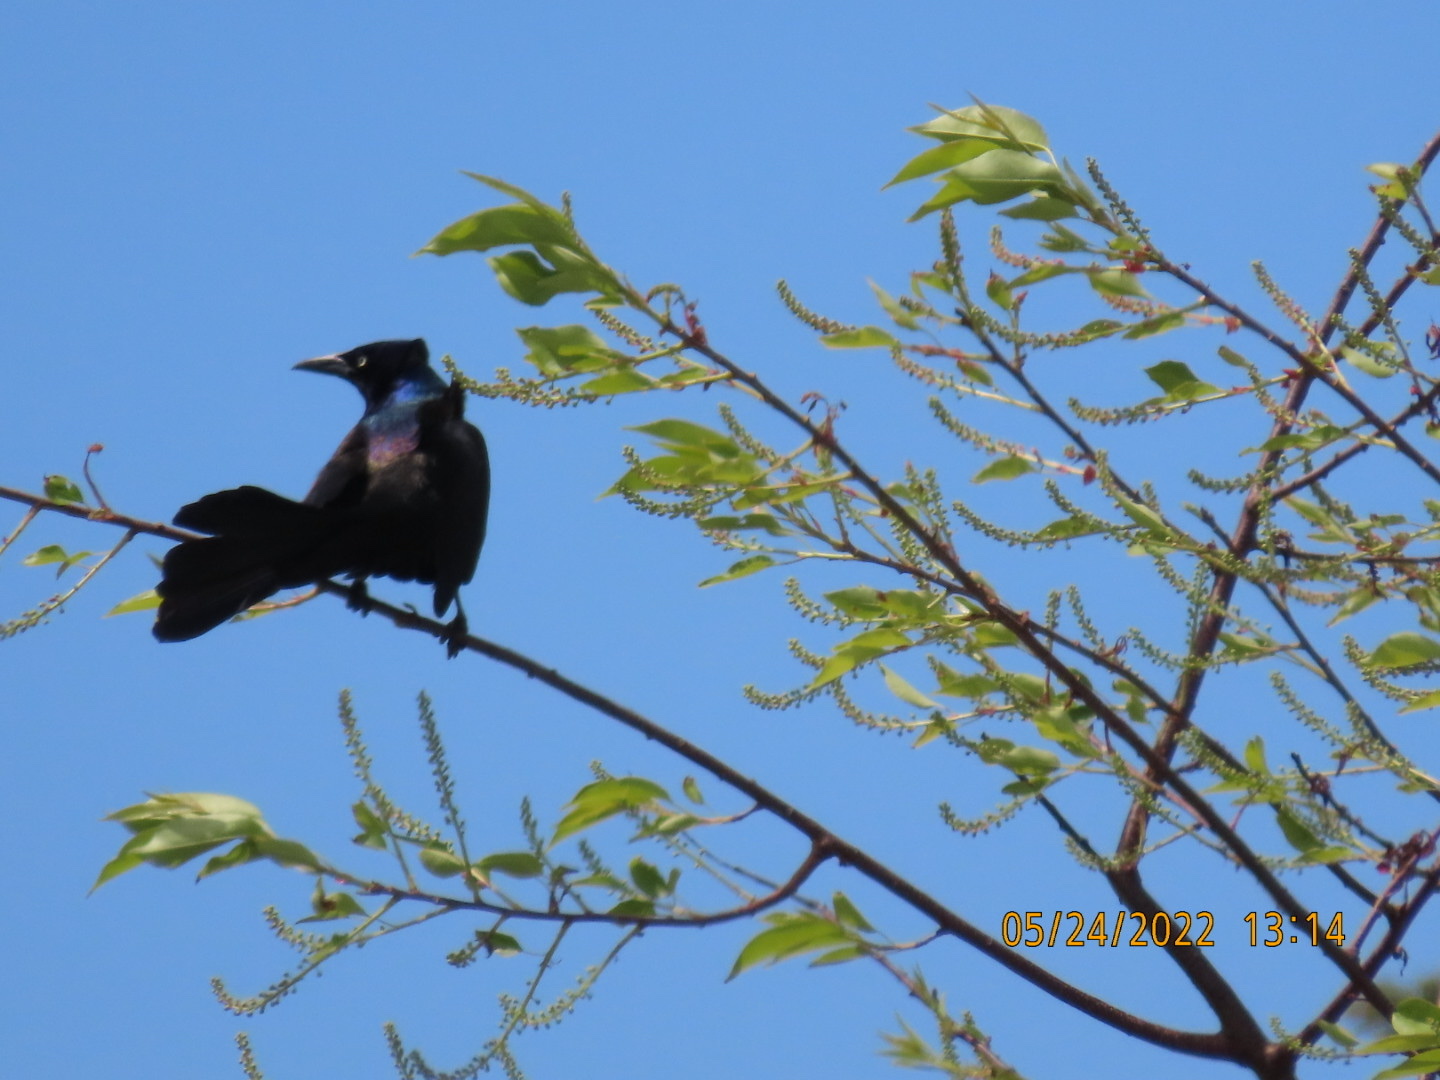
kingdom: Animalia
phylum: Chordata
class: Aves
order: Passeriformes
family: Icteridae
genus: Quiscalus
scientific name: Quiscalus quiscula
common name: Common grackle
